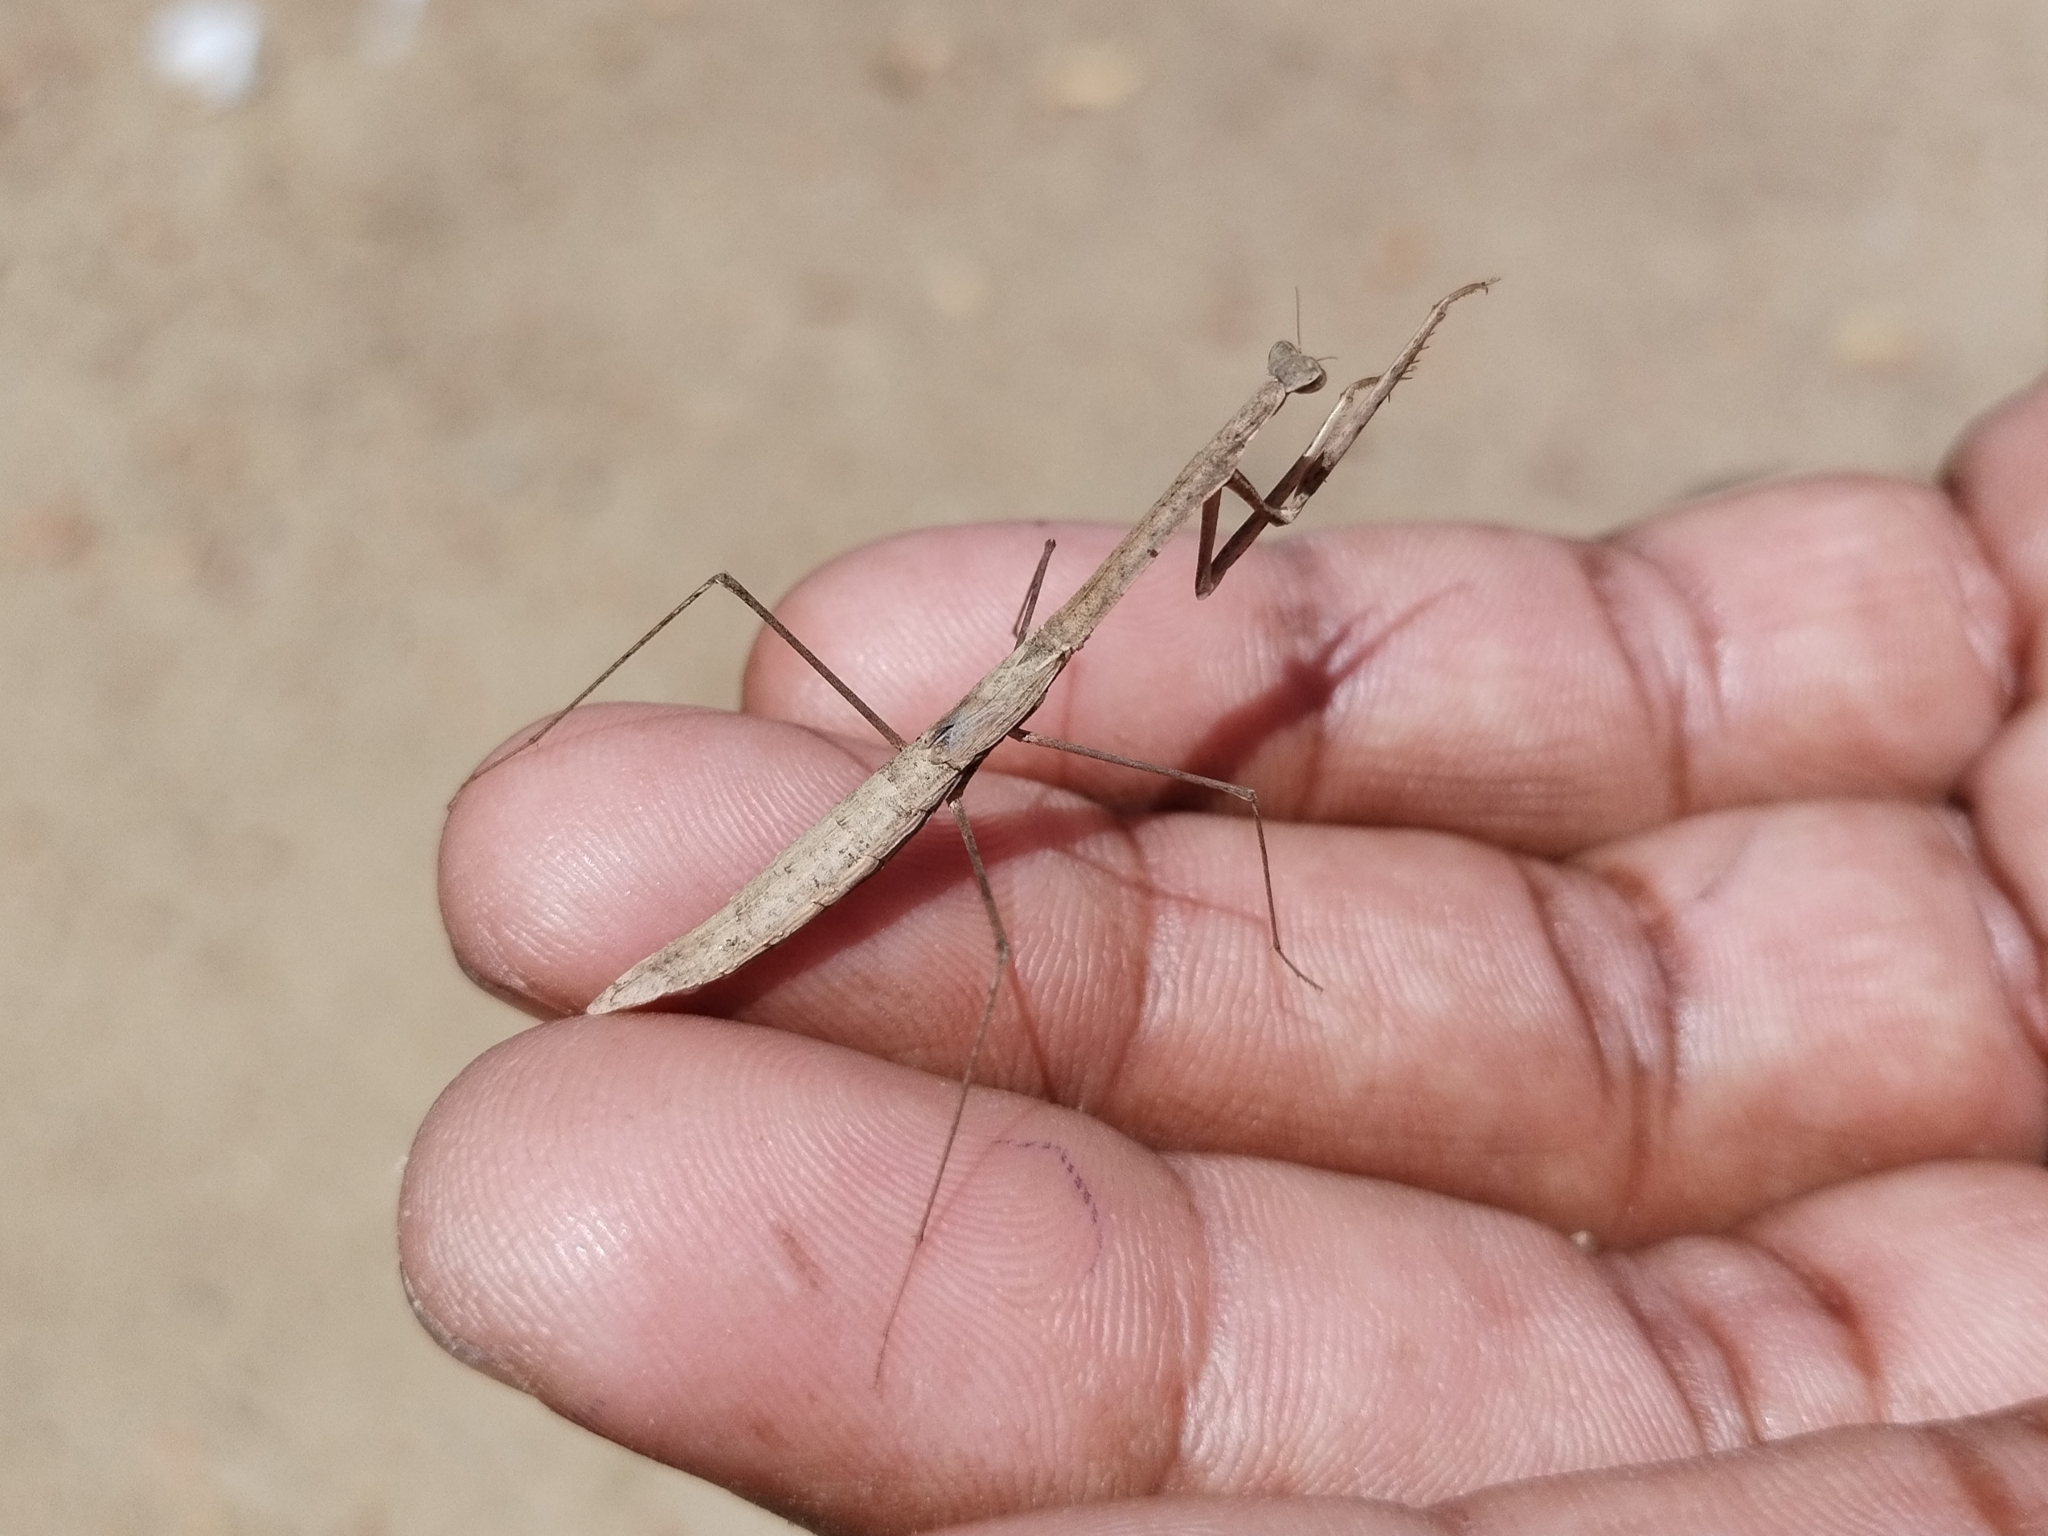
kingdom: Animalia
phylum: Arthropoda
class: Insecta
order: Mantodea
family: Eremiaphilidae
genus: Parathespis
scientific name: Parathespis humbertiana
